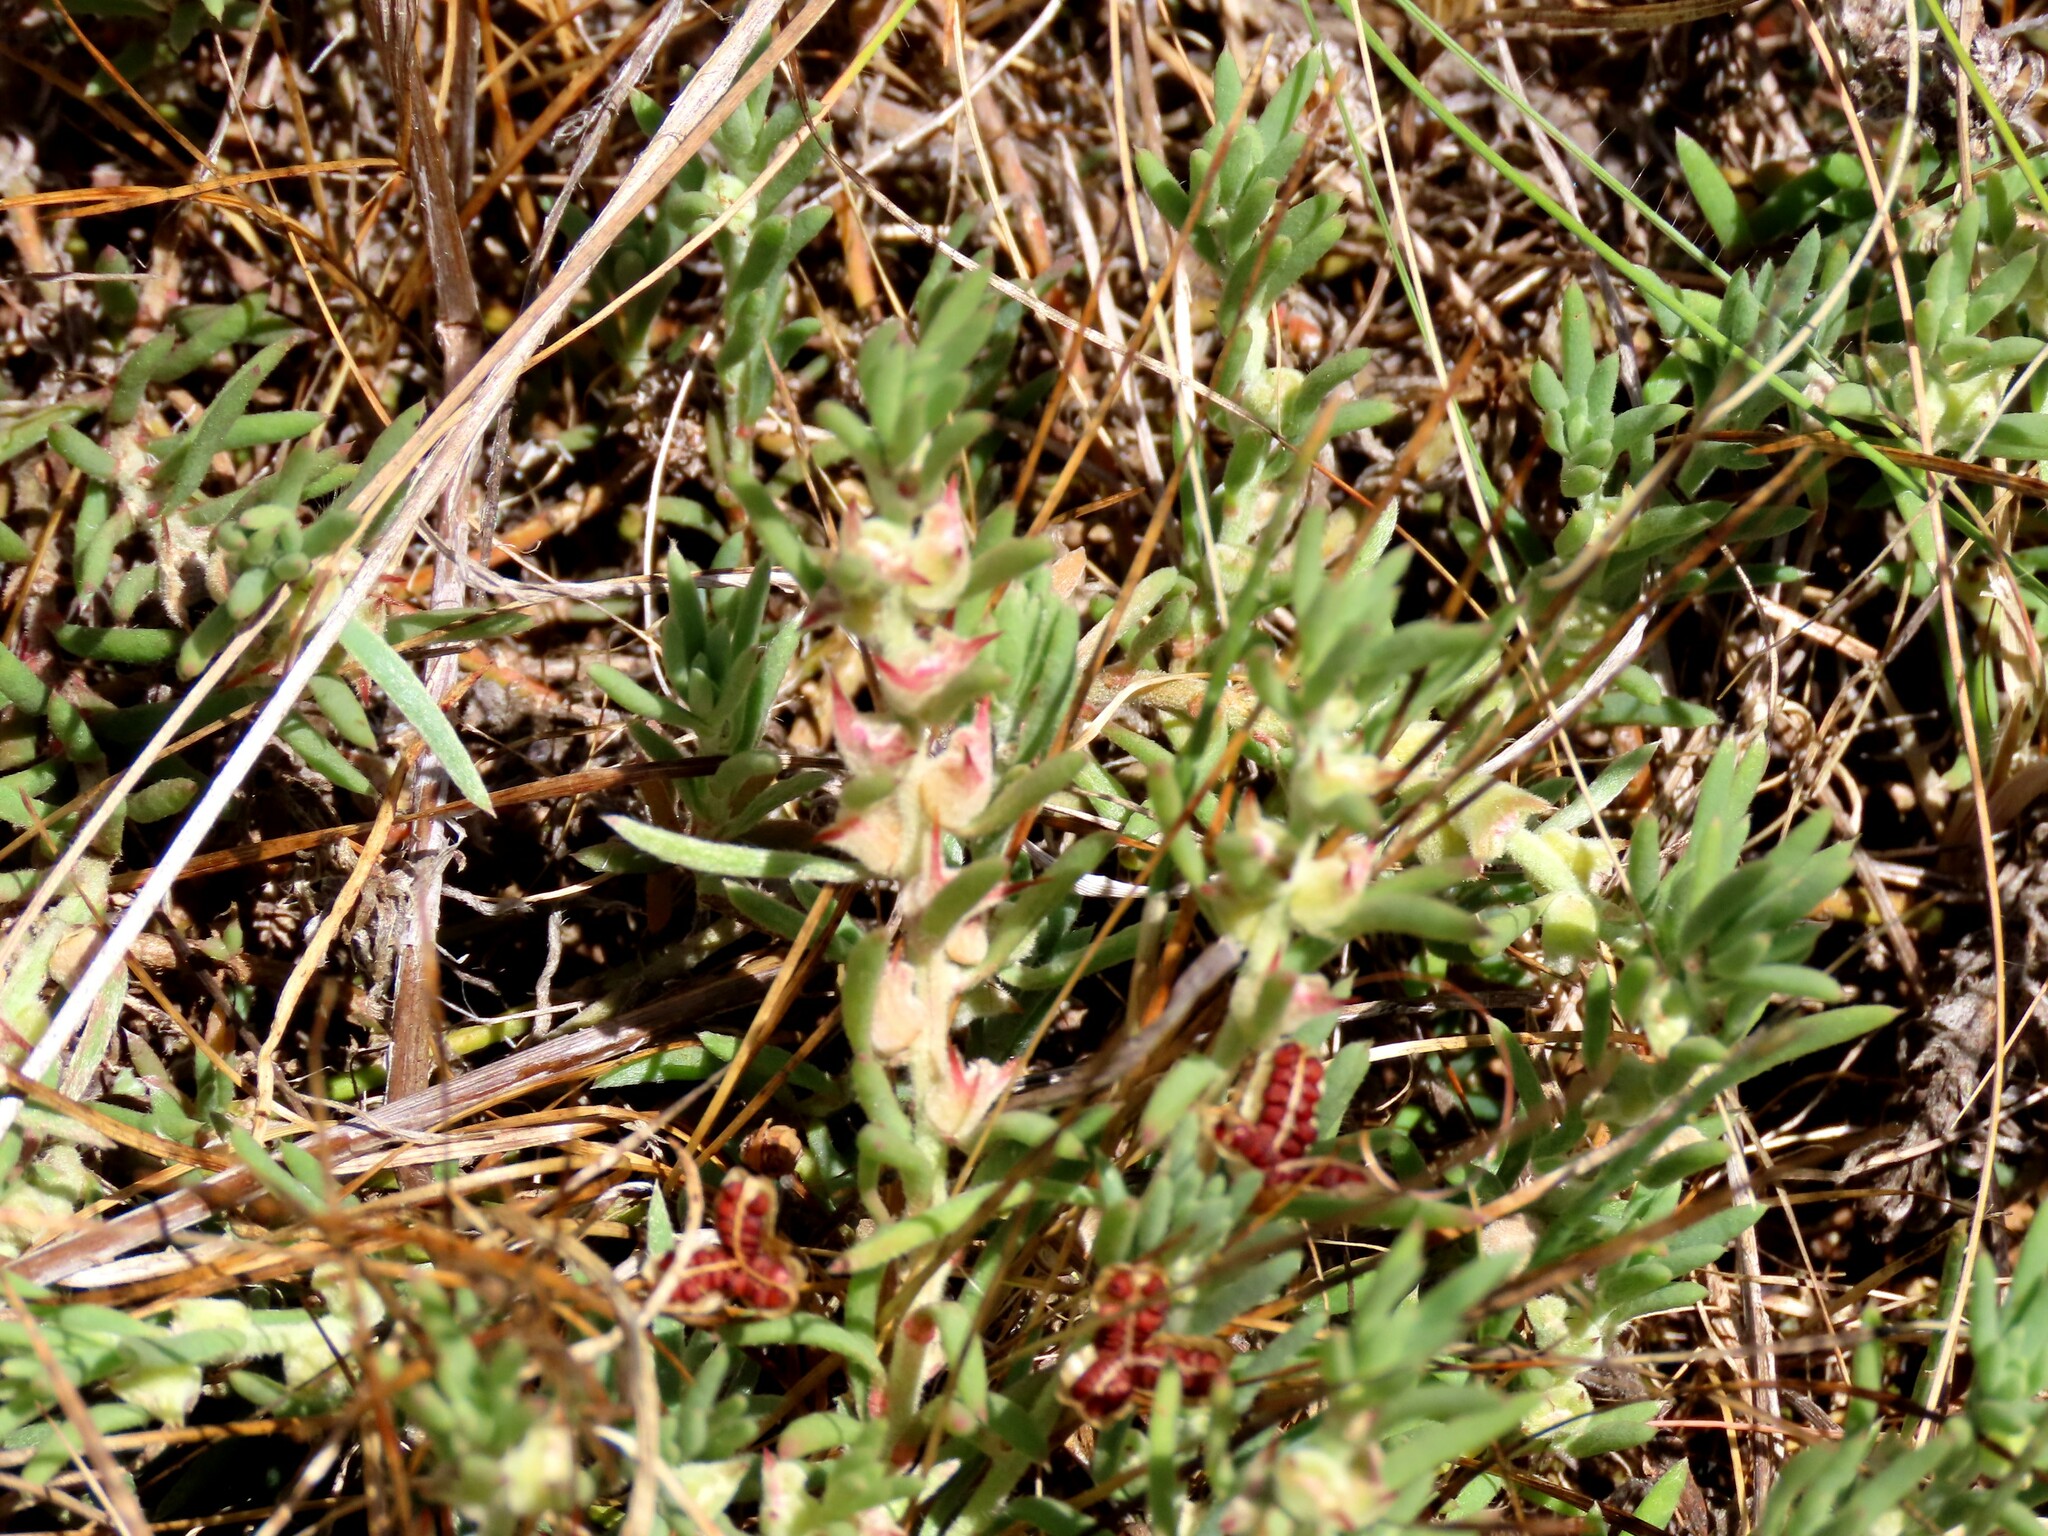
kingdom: Plantae
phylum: Tracheophyta
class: Magnoliopsida
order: Caryophyllales
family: Amaranthaceae
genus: Sclerolaena
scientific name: Sclerolaena diacantha
